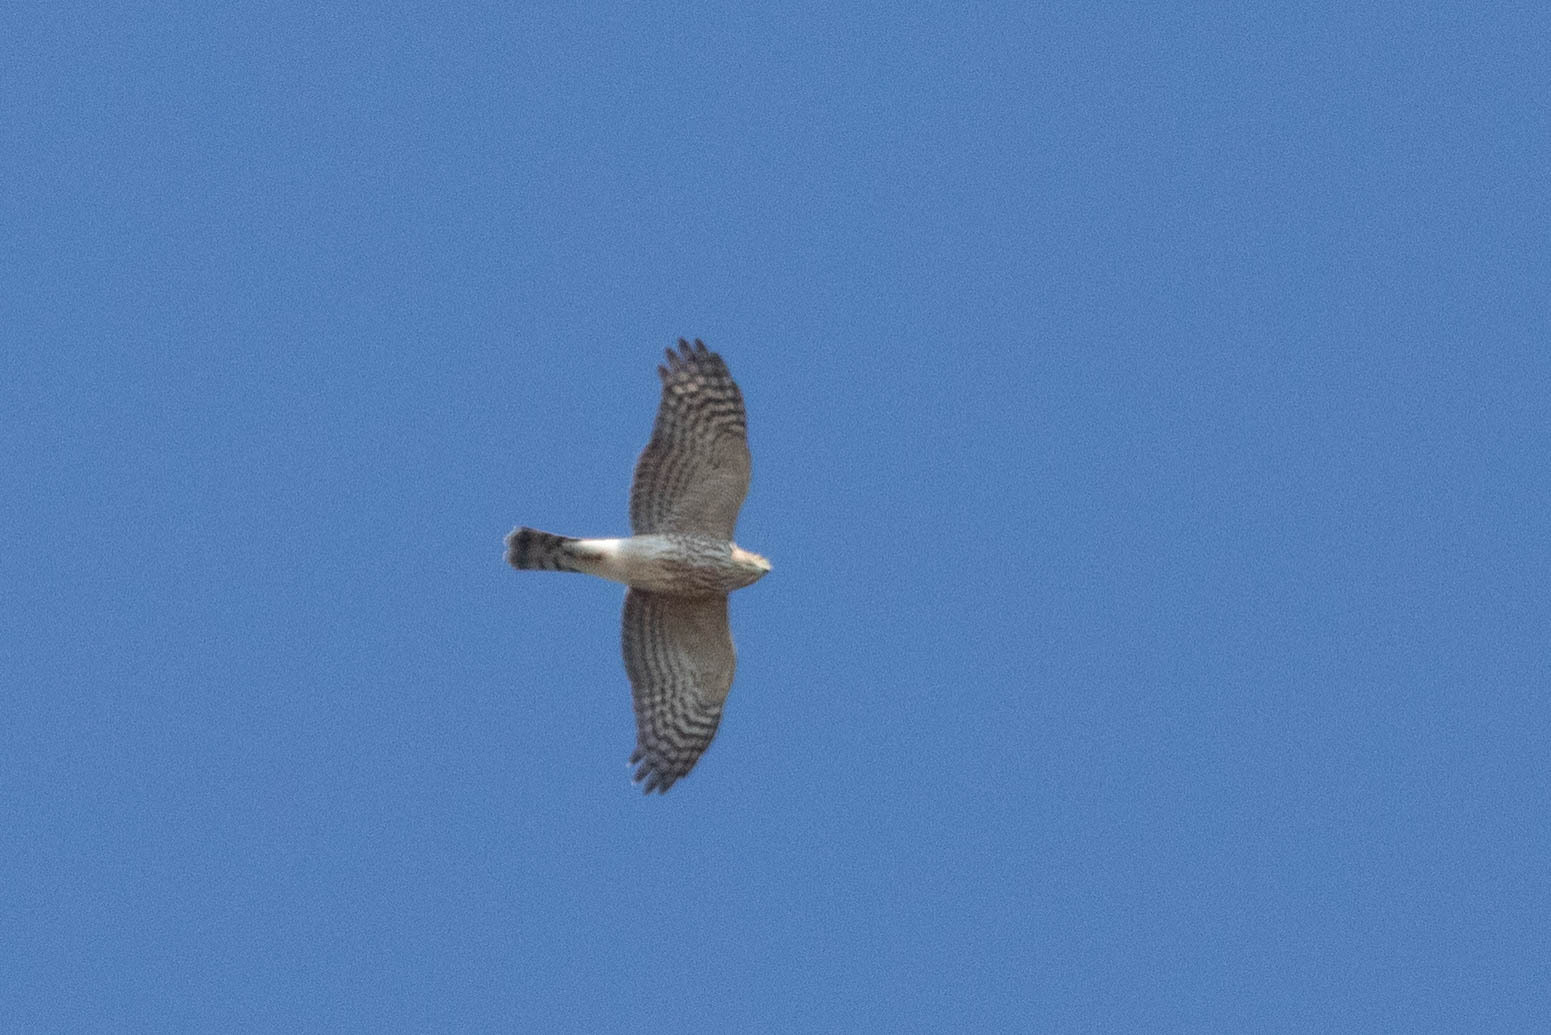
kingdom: Animalia
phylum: Chordata
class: Aves
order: Accipitriformes
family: Accipitridae
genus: Accipiter
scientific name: Accipiter striatus
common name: Sharp-shinned hawk
